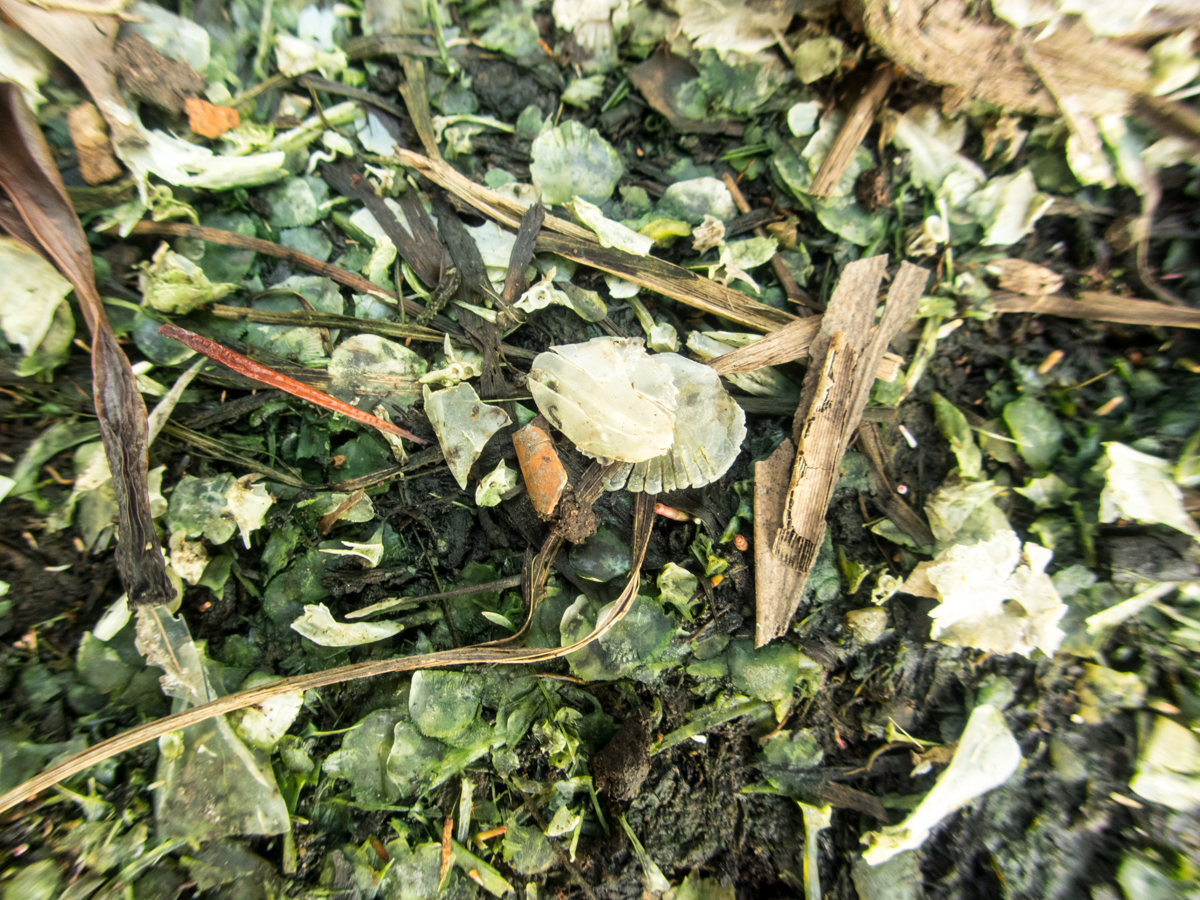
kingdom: Animalia
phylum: Chordata
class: Mammalia
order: Carnivora
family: Mustelidae
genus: Lutrogale
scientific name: Lutrogale perspicillata
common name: Smooth-coated otter
